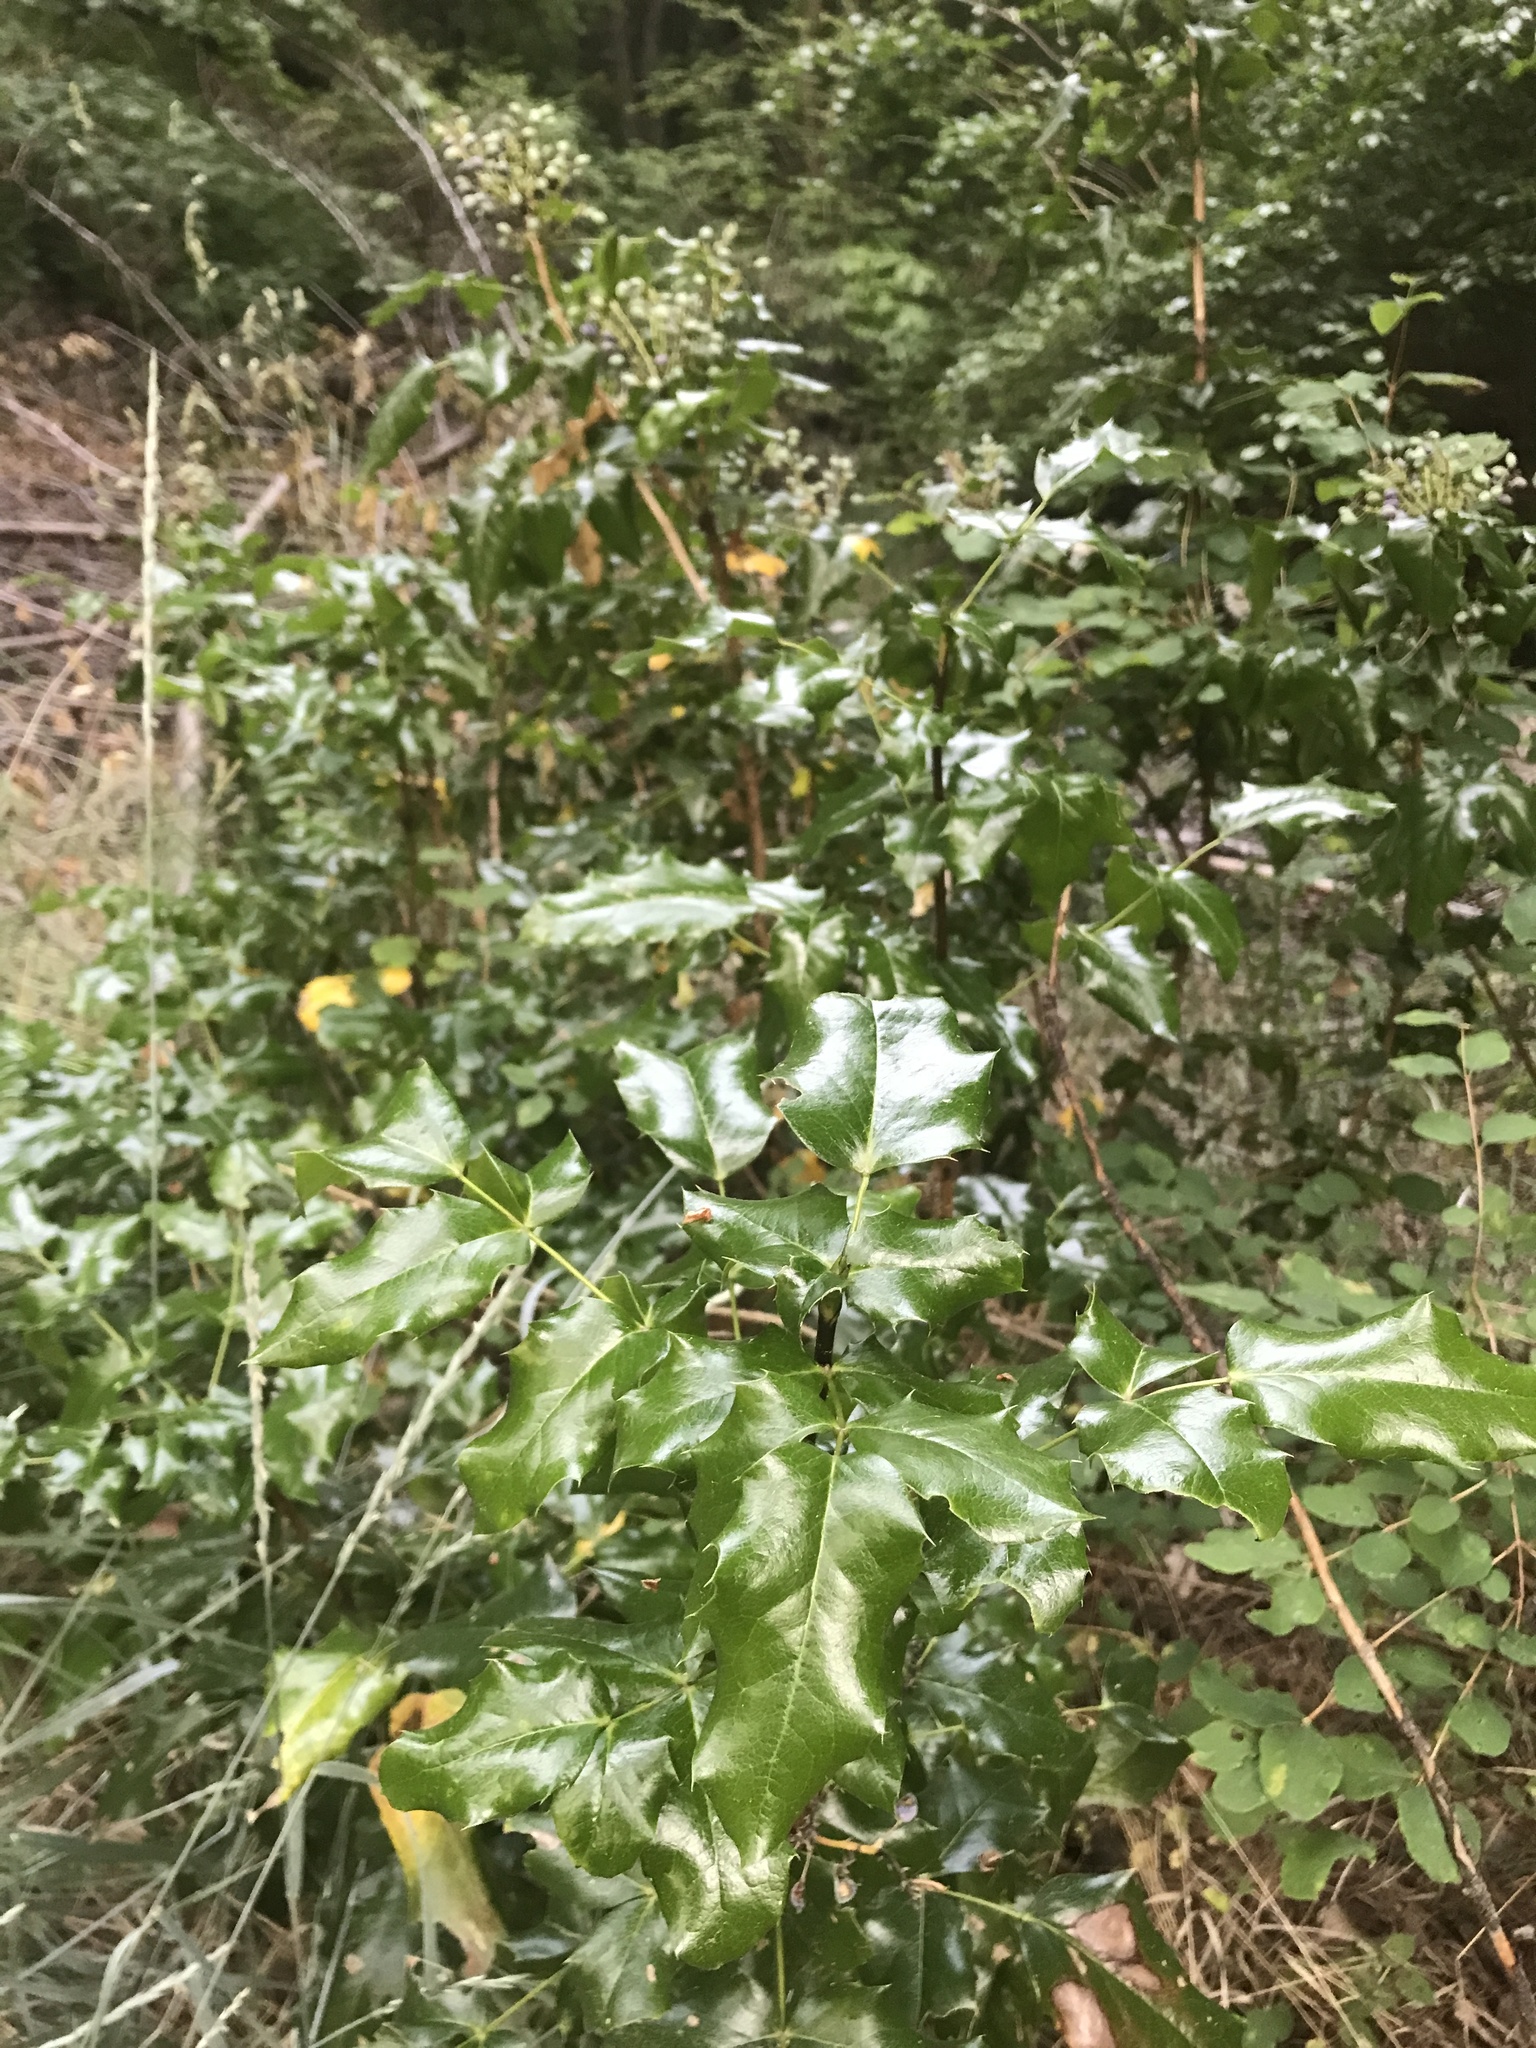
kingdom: Plantae
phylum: Tracheophyta
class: Magnoliopsida
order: Ranunculales
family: Berberidaceae
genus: Mahonia
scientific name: Mahonia aquifolium
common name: Oregon-grape
